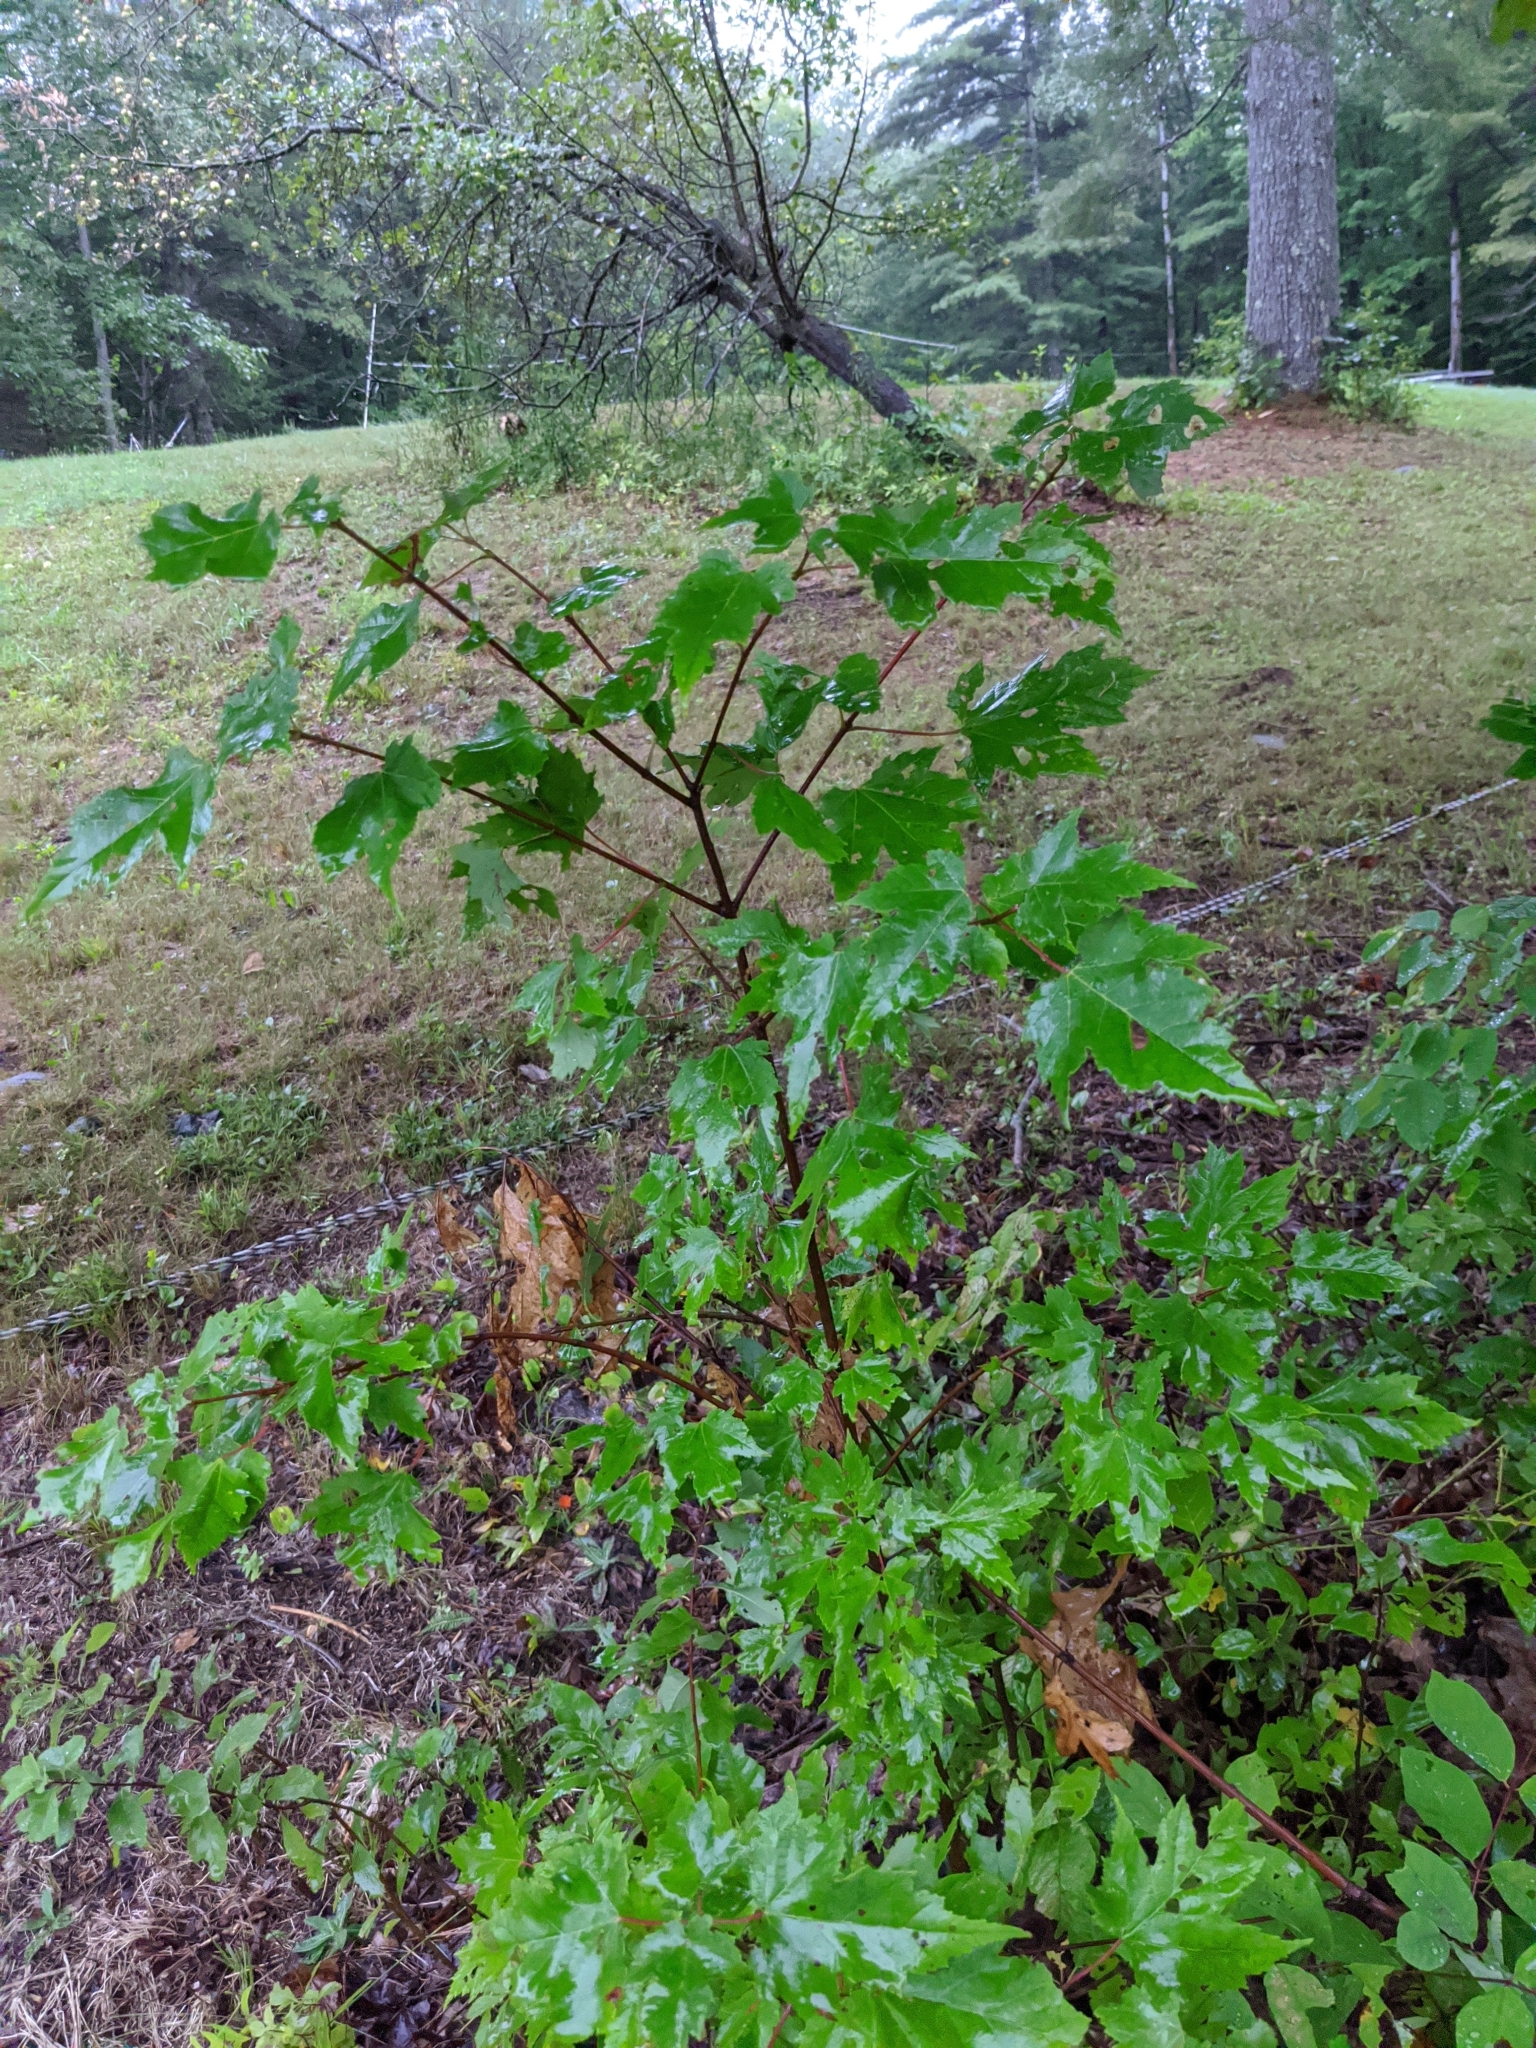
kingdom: Plantae
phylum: Tracheophyta
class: Magnoliopsida
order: Sapindales
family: Sapindaceae
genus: Acer
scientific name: Acer rubrum
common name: Red maple
